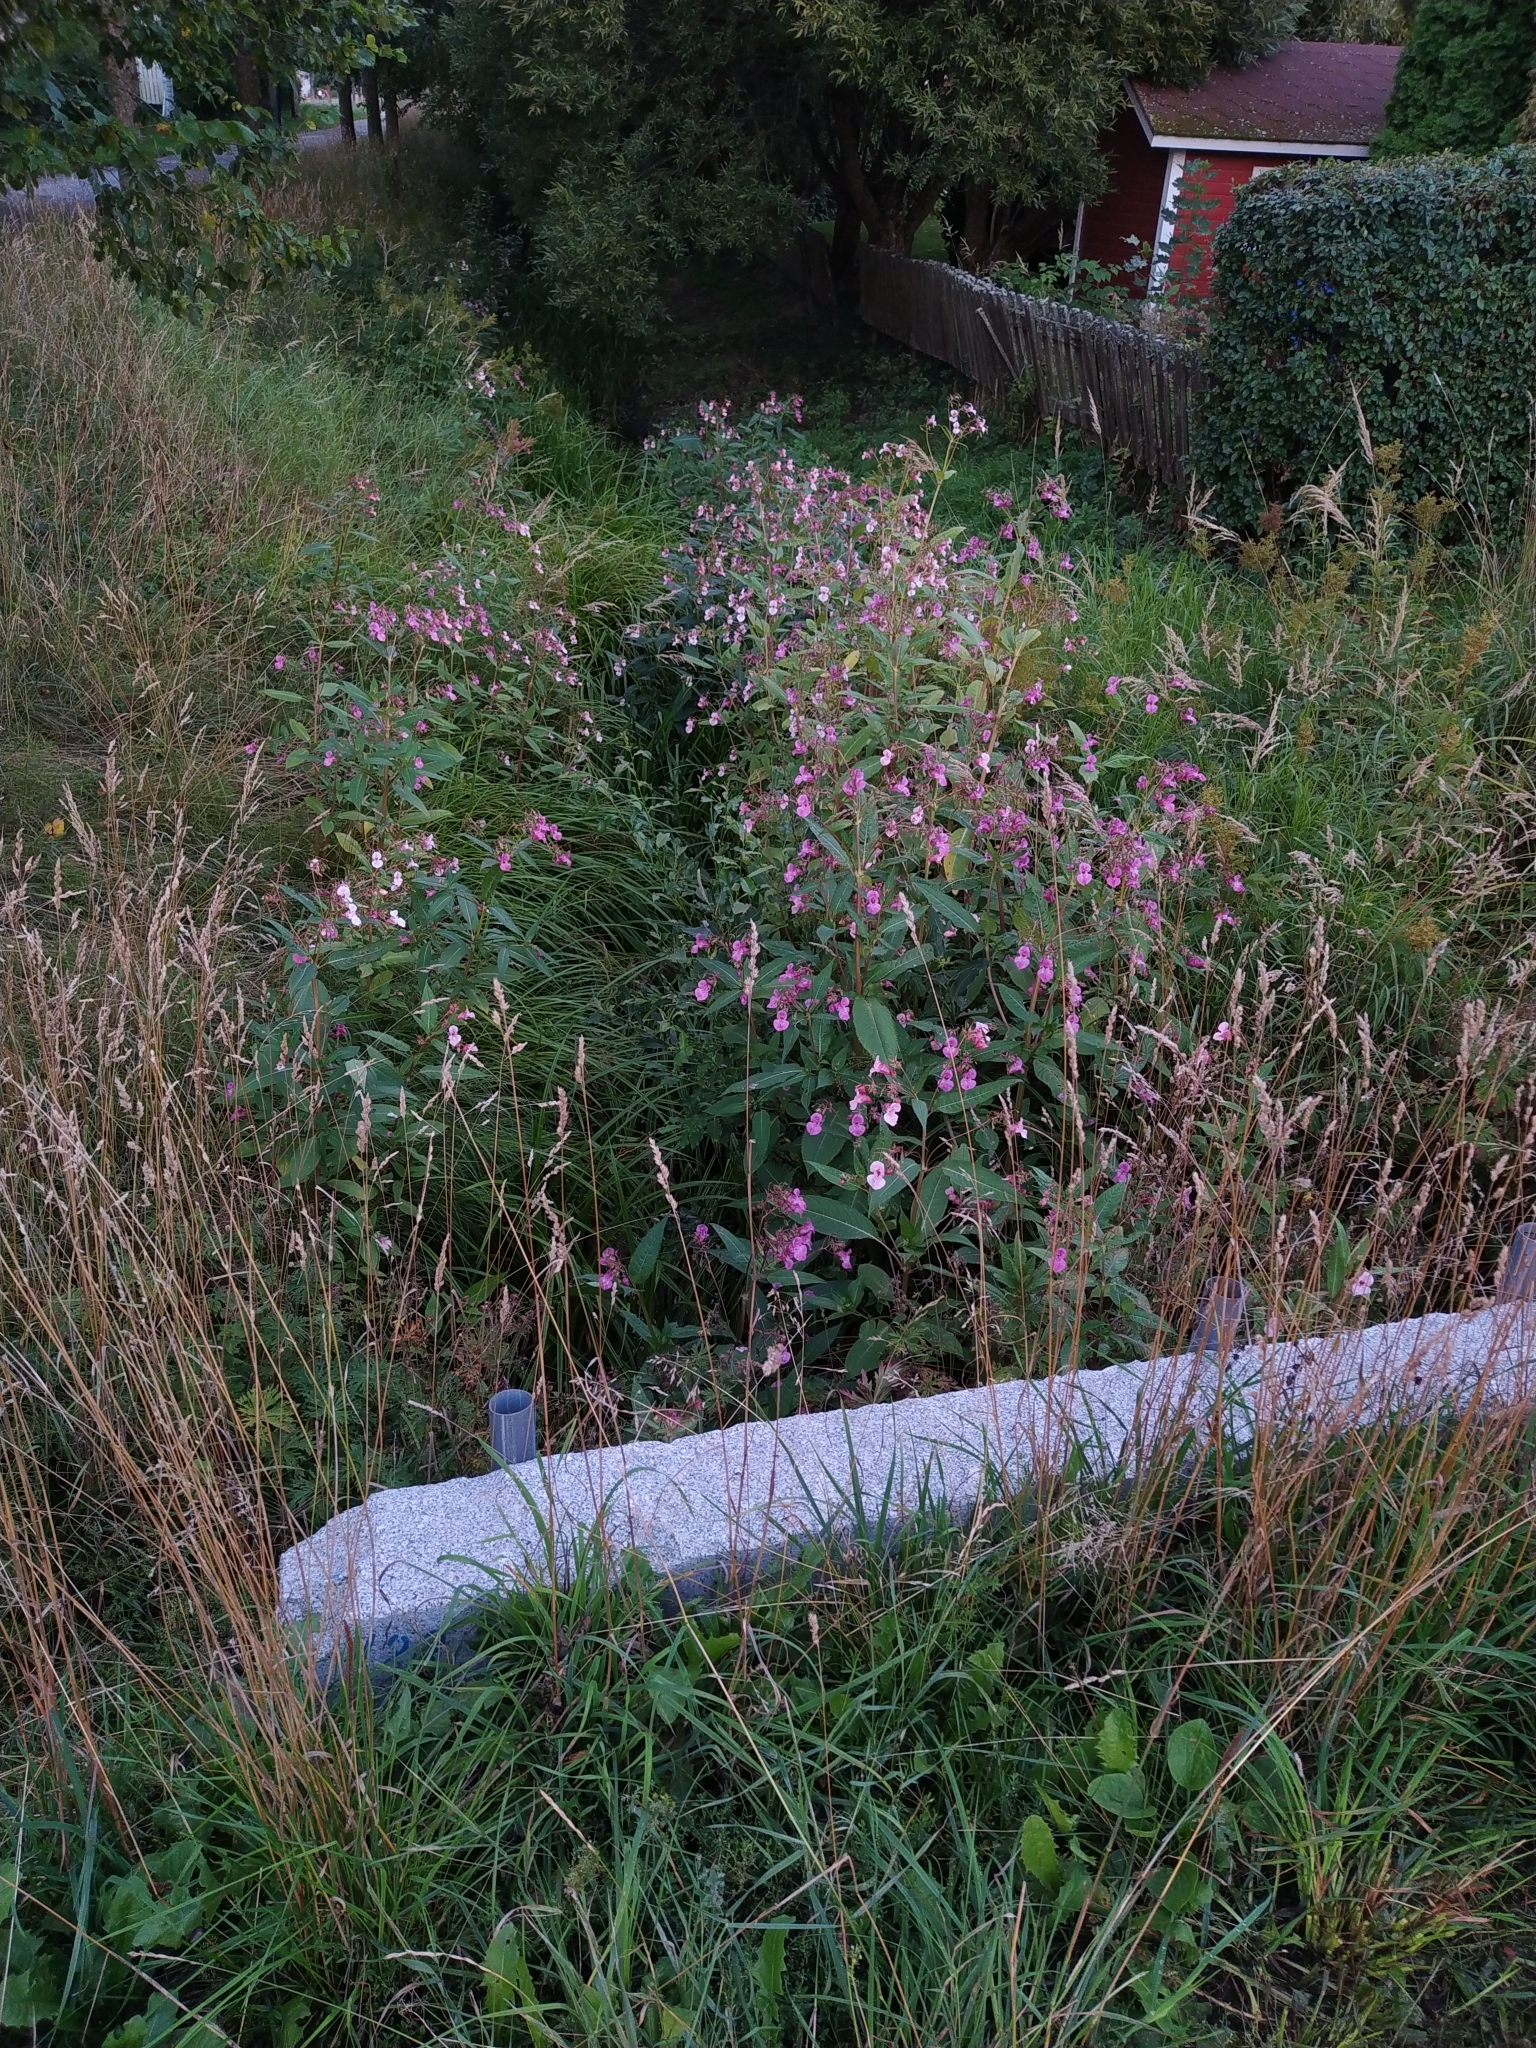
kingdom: Plantae
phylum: Tracheophyta
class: Magnoliopsida
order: Ericales
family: Balsaminaceae
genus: Impatiens
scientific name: Impatiens glandulifera
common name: Himalayan balsam
